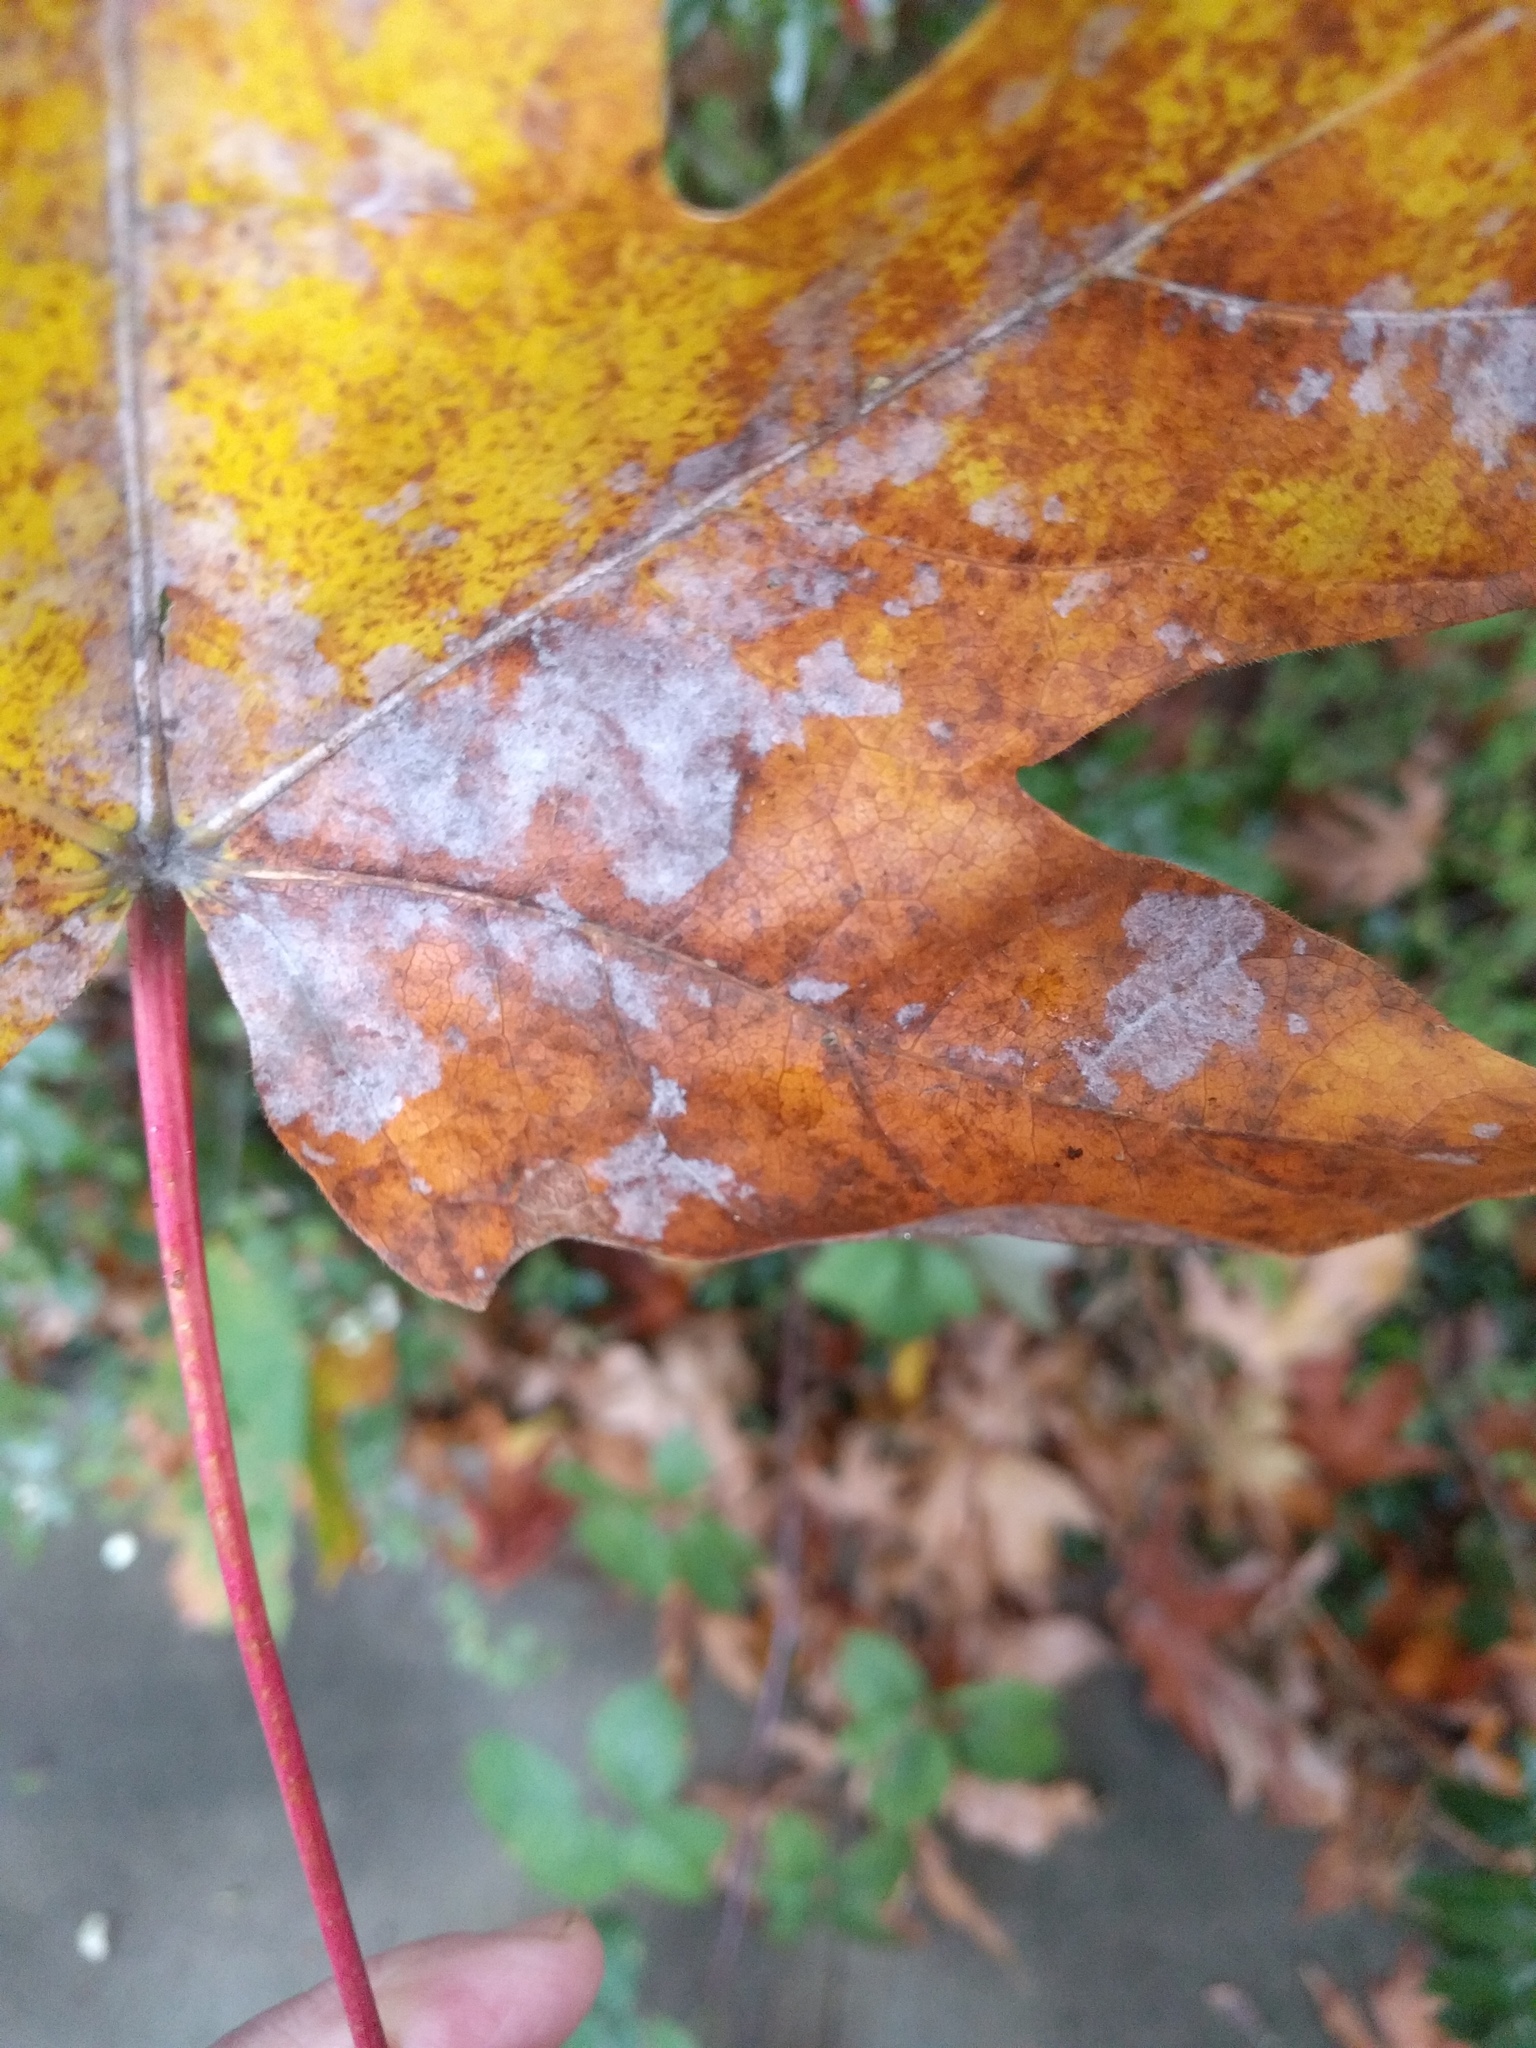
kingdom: Plantae
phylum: Tracheophyta
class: Magnoliopsida
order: Sapindales
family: Sapindaceae
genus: Acer
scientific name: Acer macrophyllum
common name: Oregon maple
